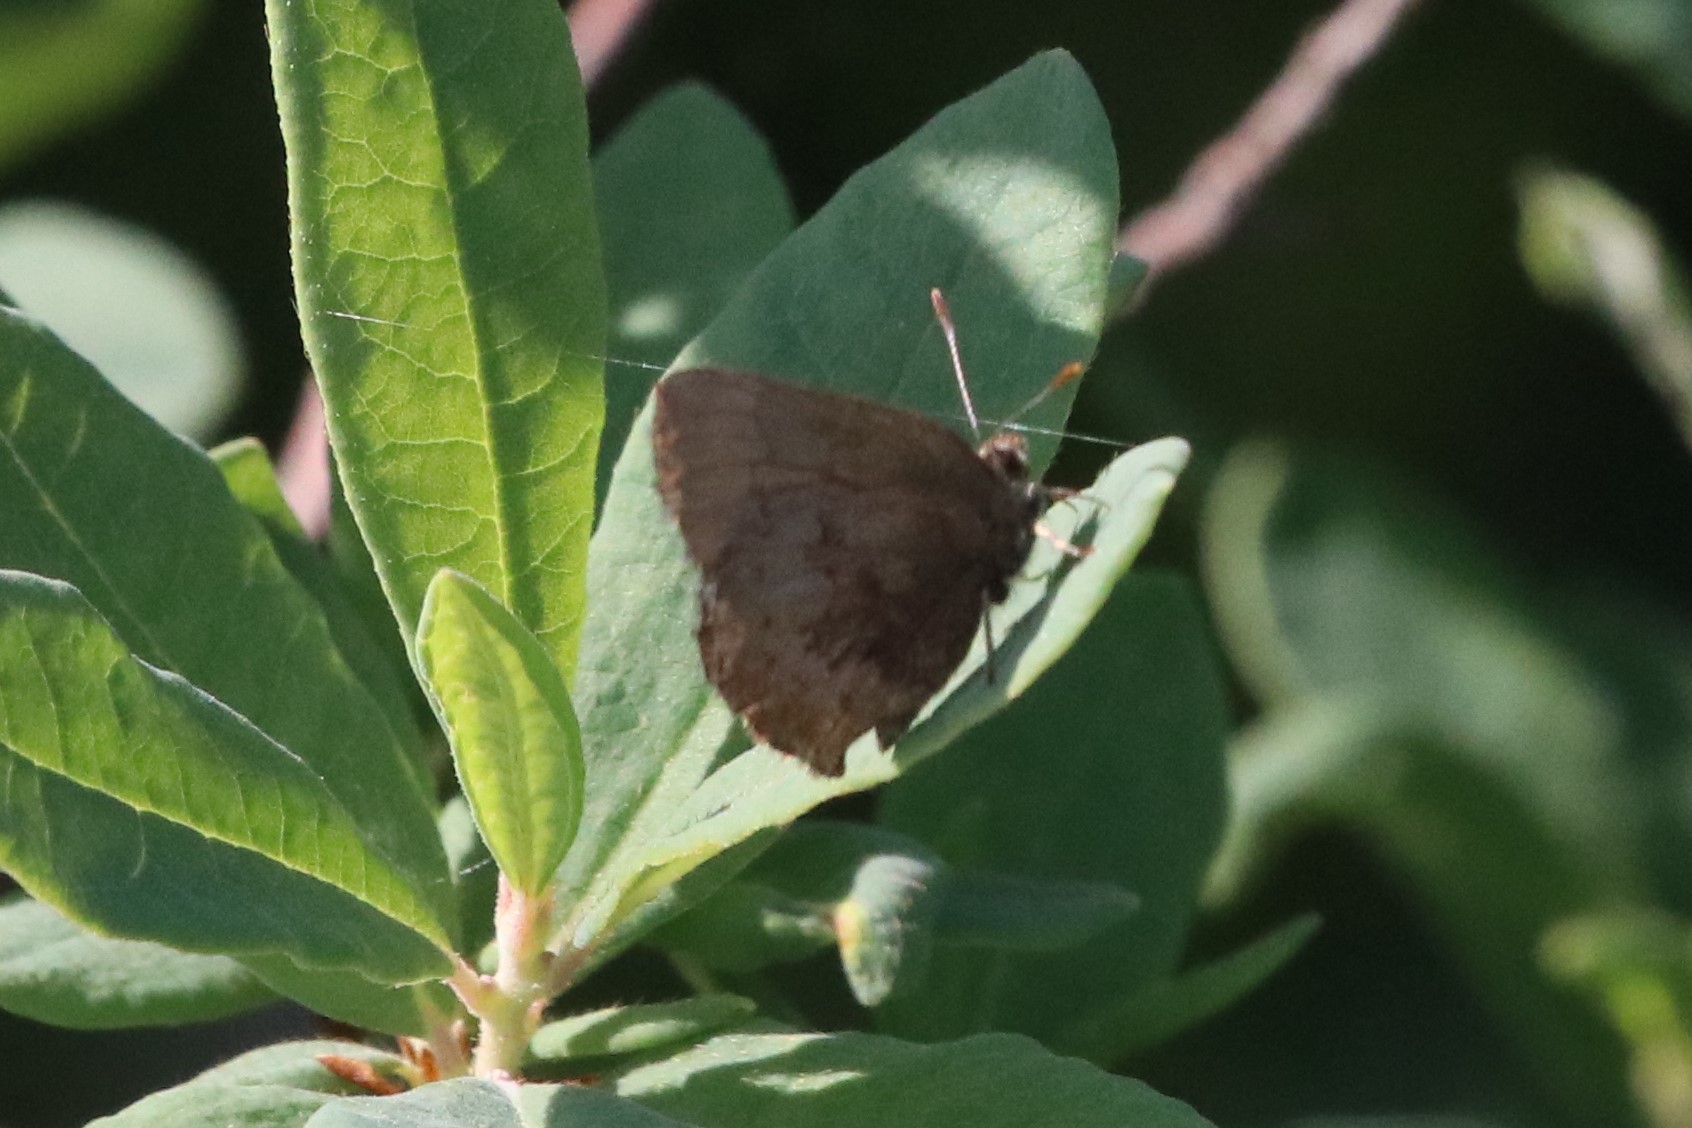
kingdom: Animalia
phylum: Arthropoda
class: Insecta
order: Lepidoptera
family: Lycaenidae
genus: Incisalia
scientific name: Incisalia irioides
